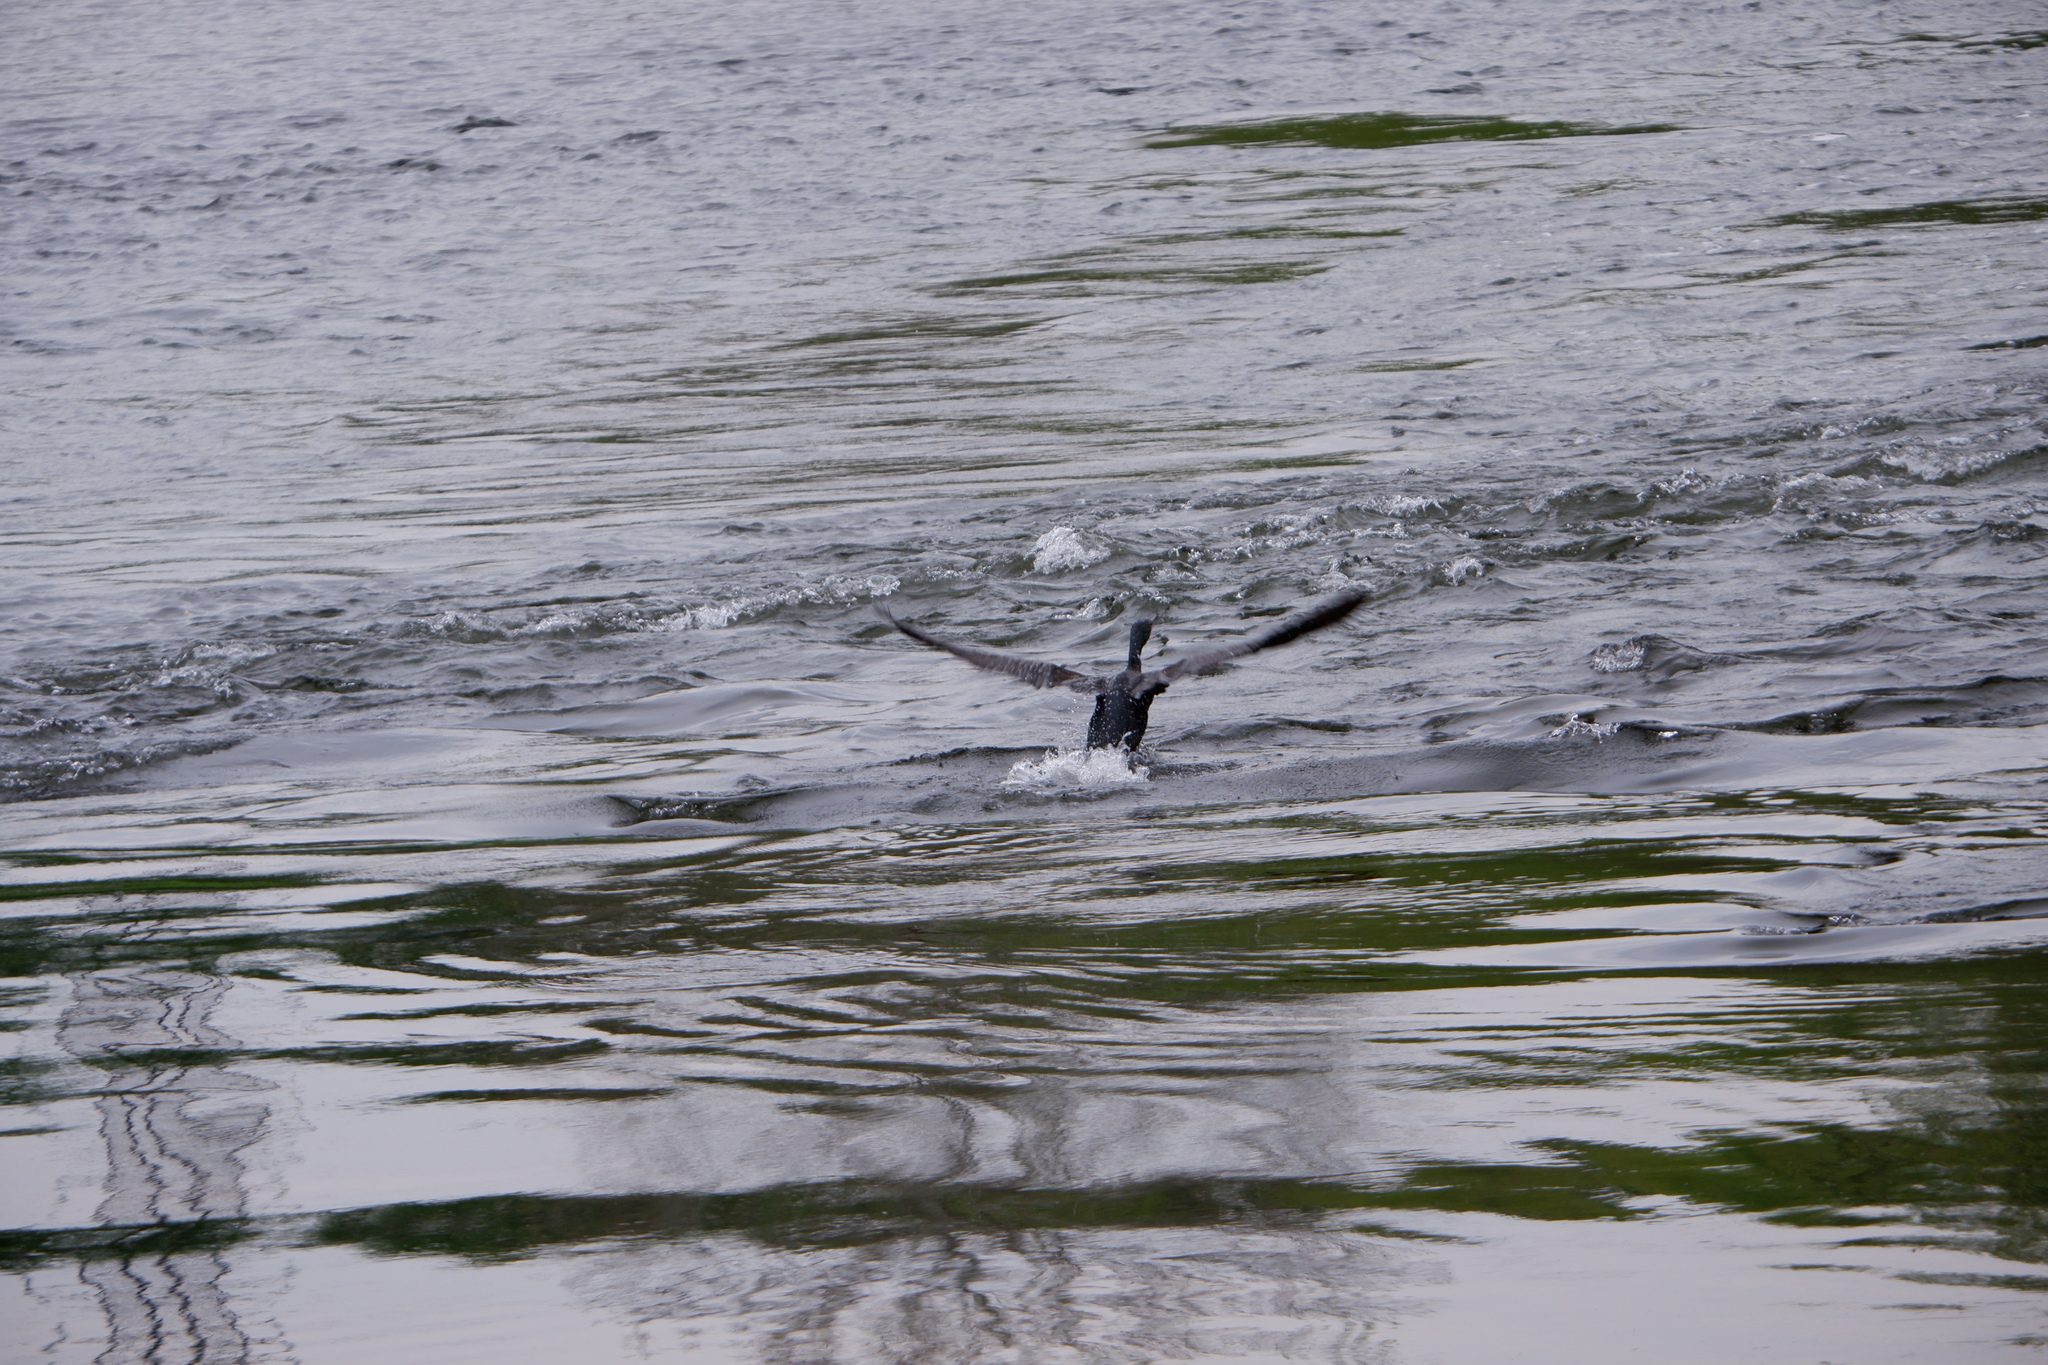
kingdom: Animalia
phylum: Chordata
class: Aves
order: Suliformes
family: Phalacrocoracidae
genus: Phalacrocorax
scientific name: Phalacrocorax auritus
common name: Double-crested cormorant
